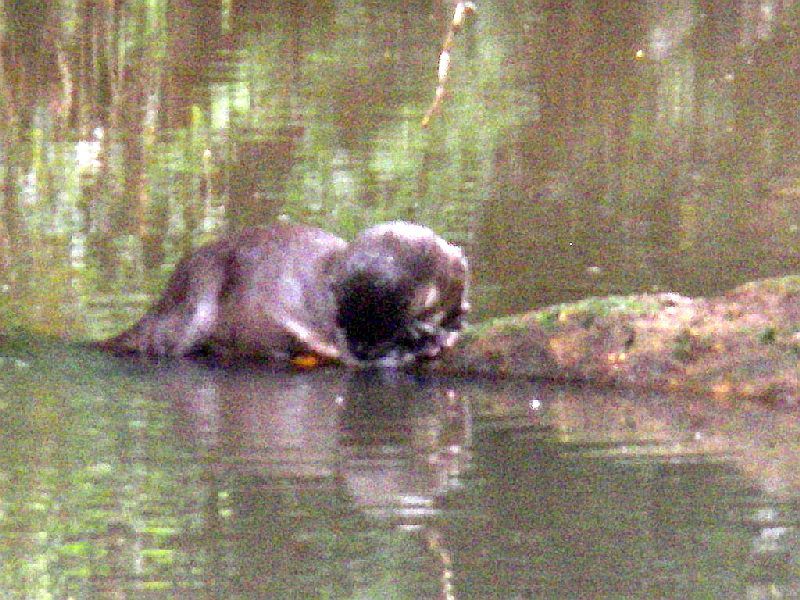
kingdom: Animalia
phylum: Chordata
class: Mammalia
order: Carnivora
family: Mustelidae
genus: Lontra
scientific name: Lontra longicaudis
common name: Neotropical otter
